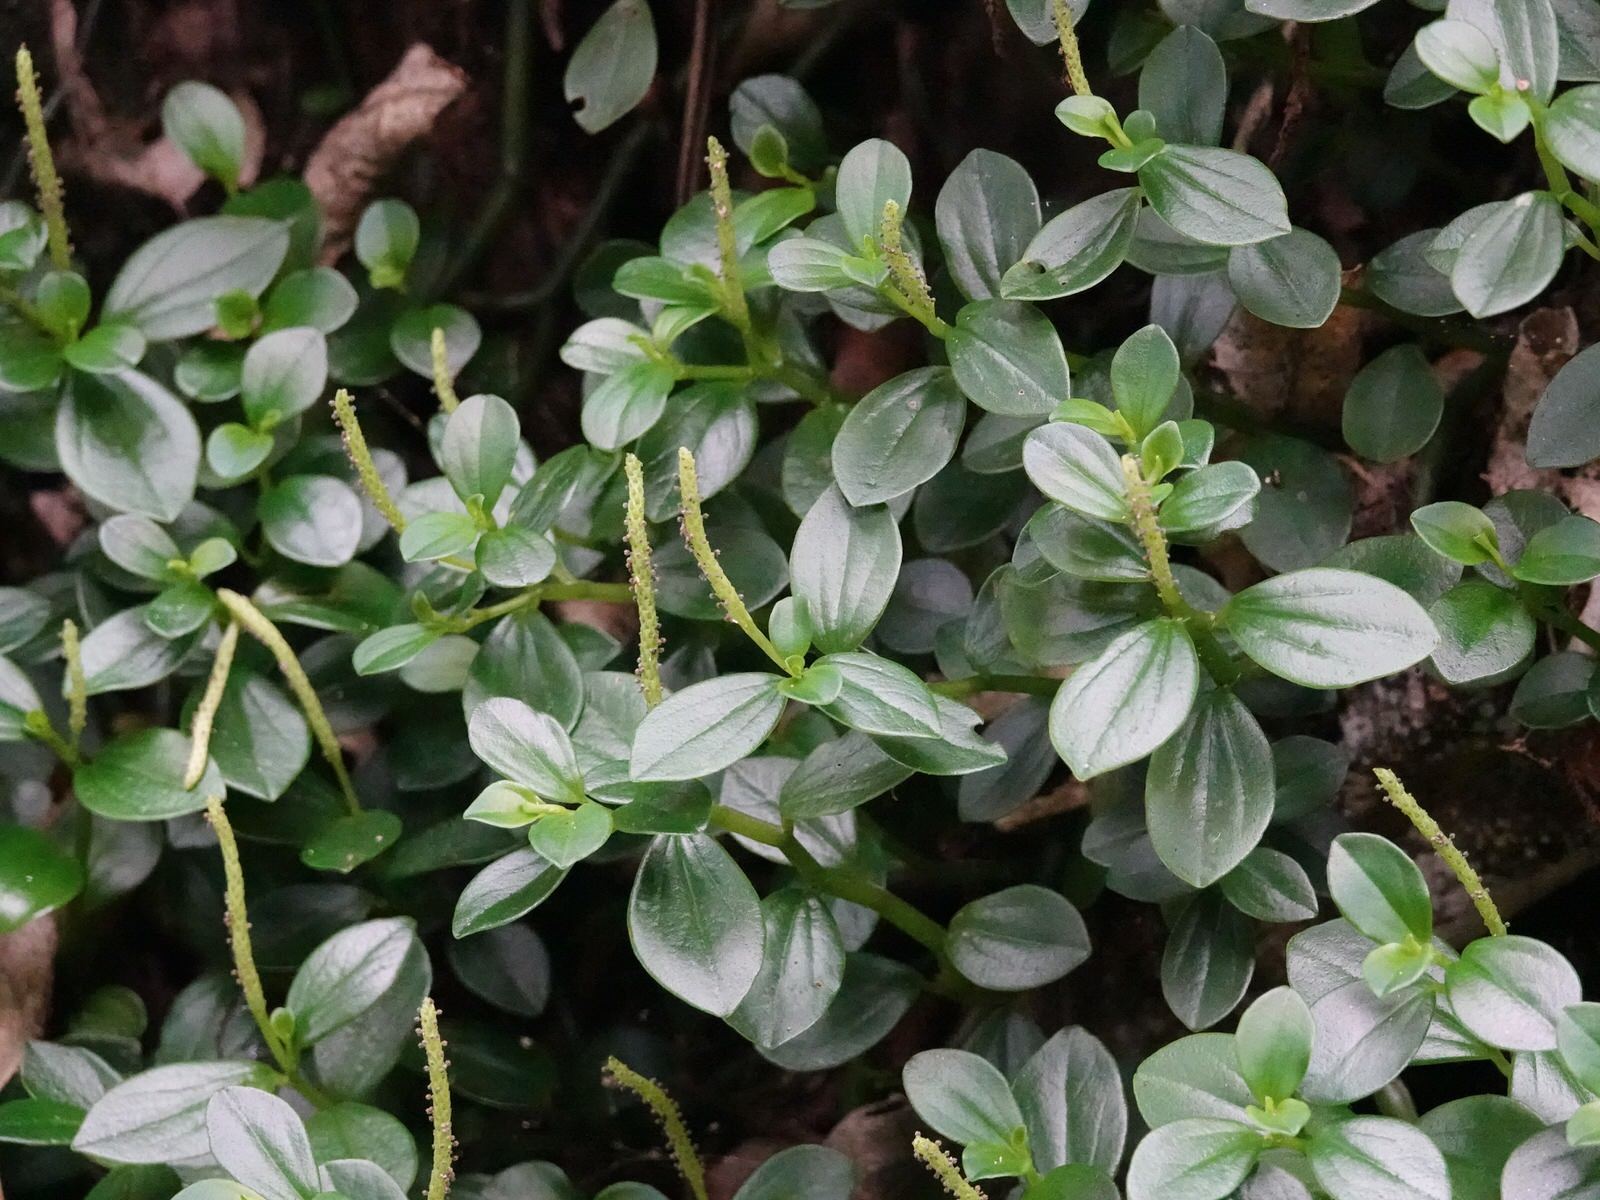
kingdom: Plantae
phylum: Tracheophyta
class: Magnoliopsida
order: Piperales
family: Piperaceae
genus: Peperomia
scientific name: Peperomia urvilleana
